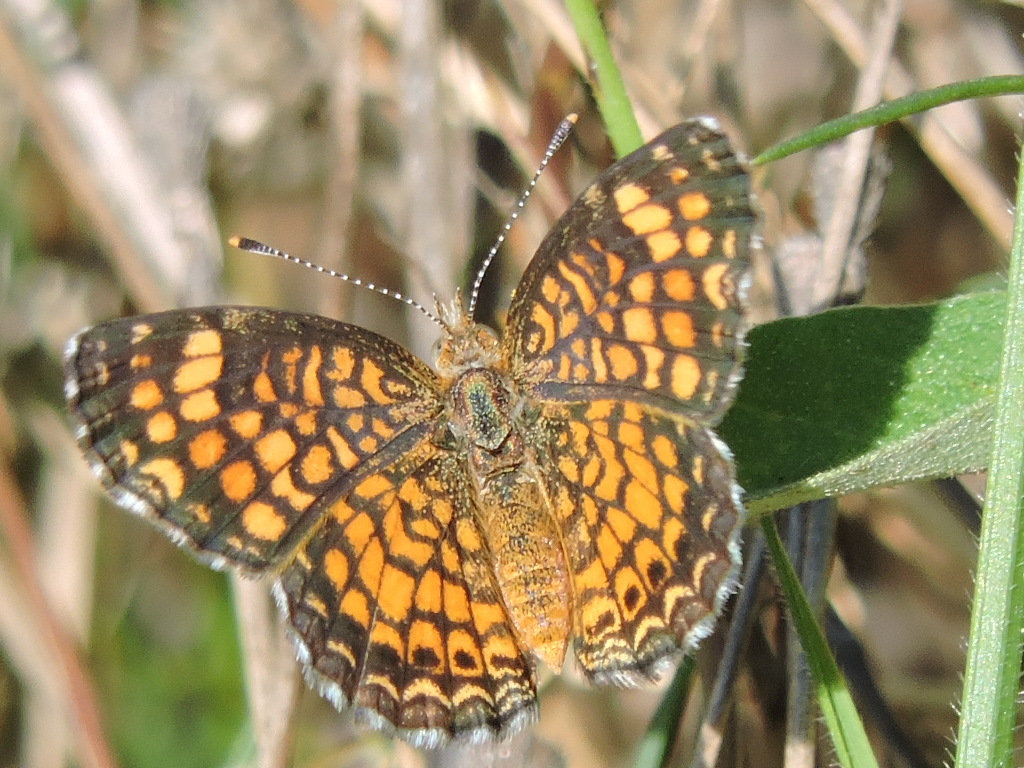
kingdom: Animalia
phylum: Arthropoda
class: Insecta
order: Lepidoptera
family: Nymphalidae
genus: Phyciodes
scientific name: Phyciodes vesta
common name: Vesta crescent
